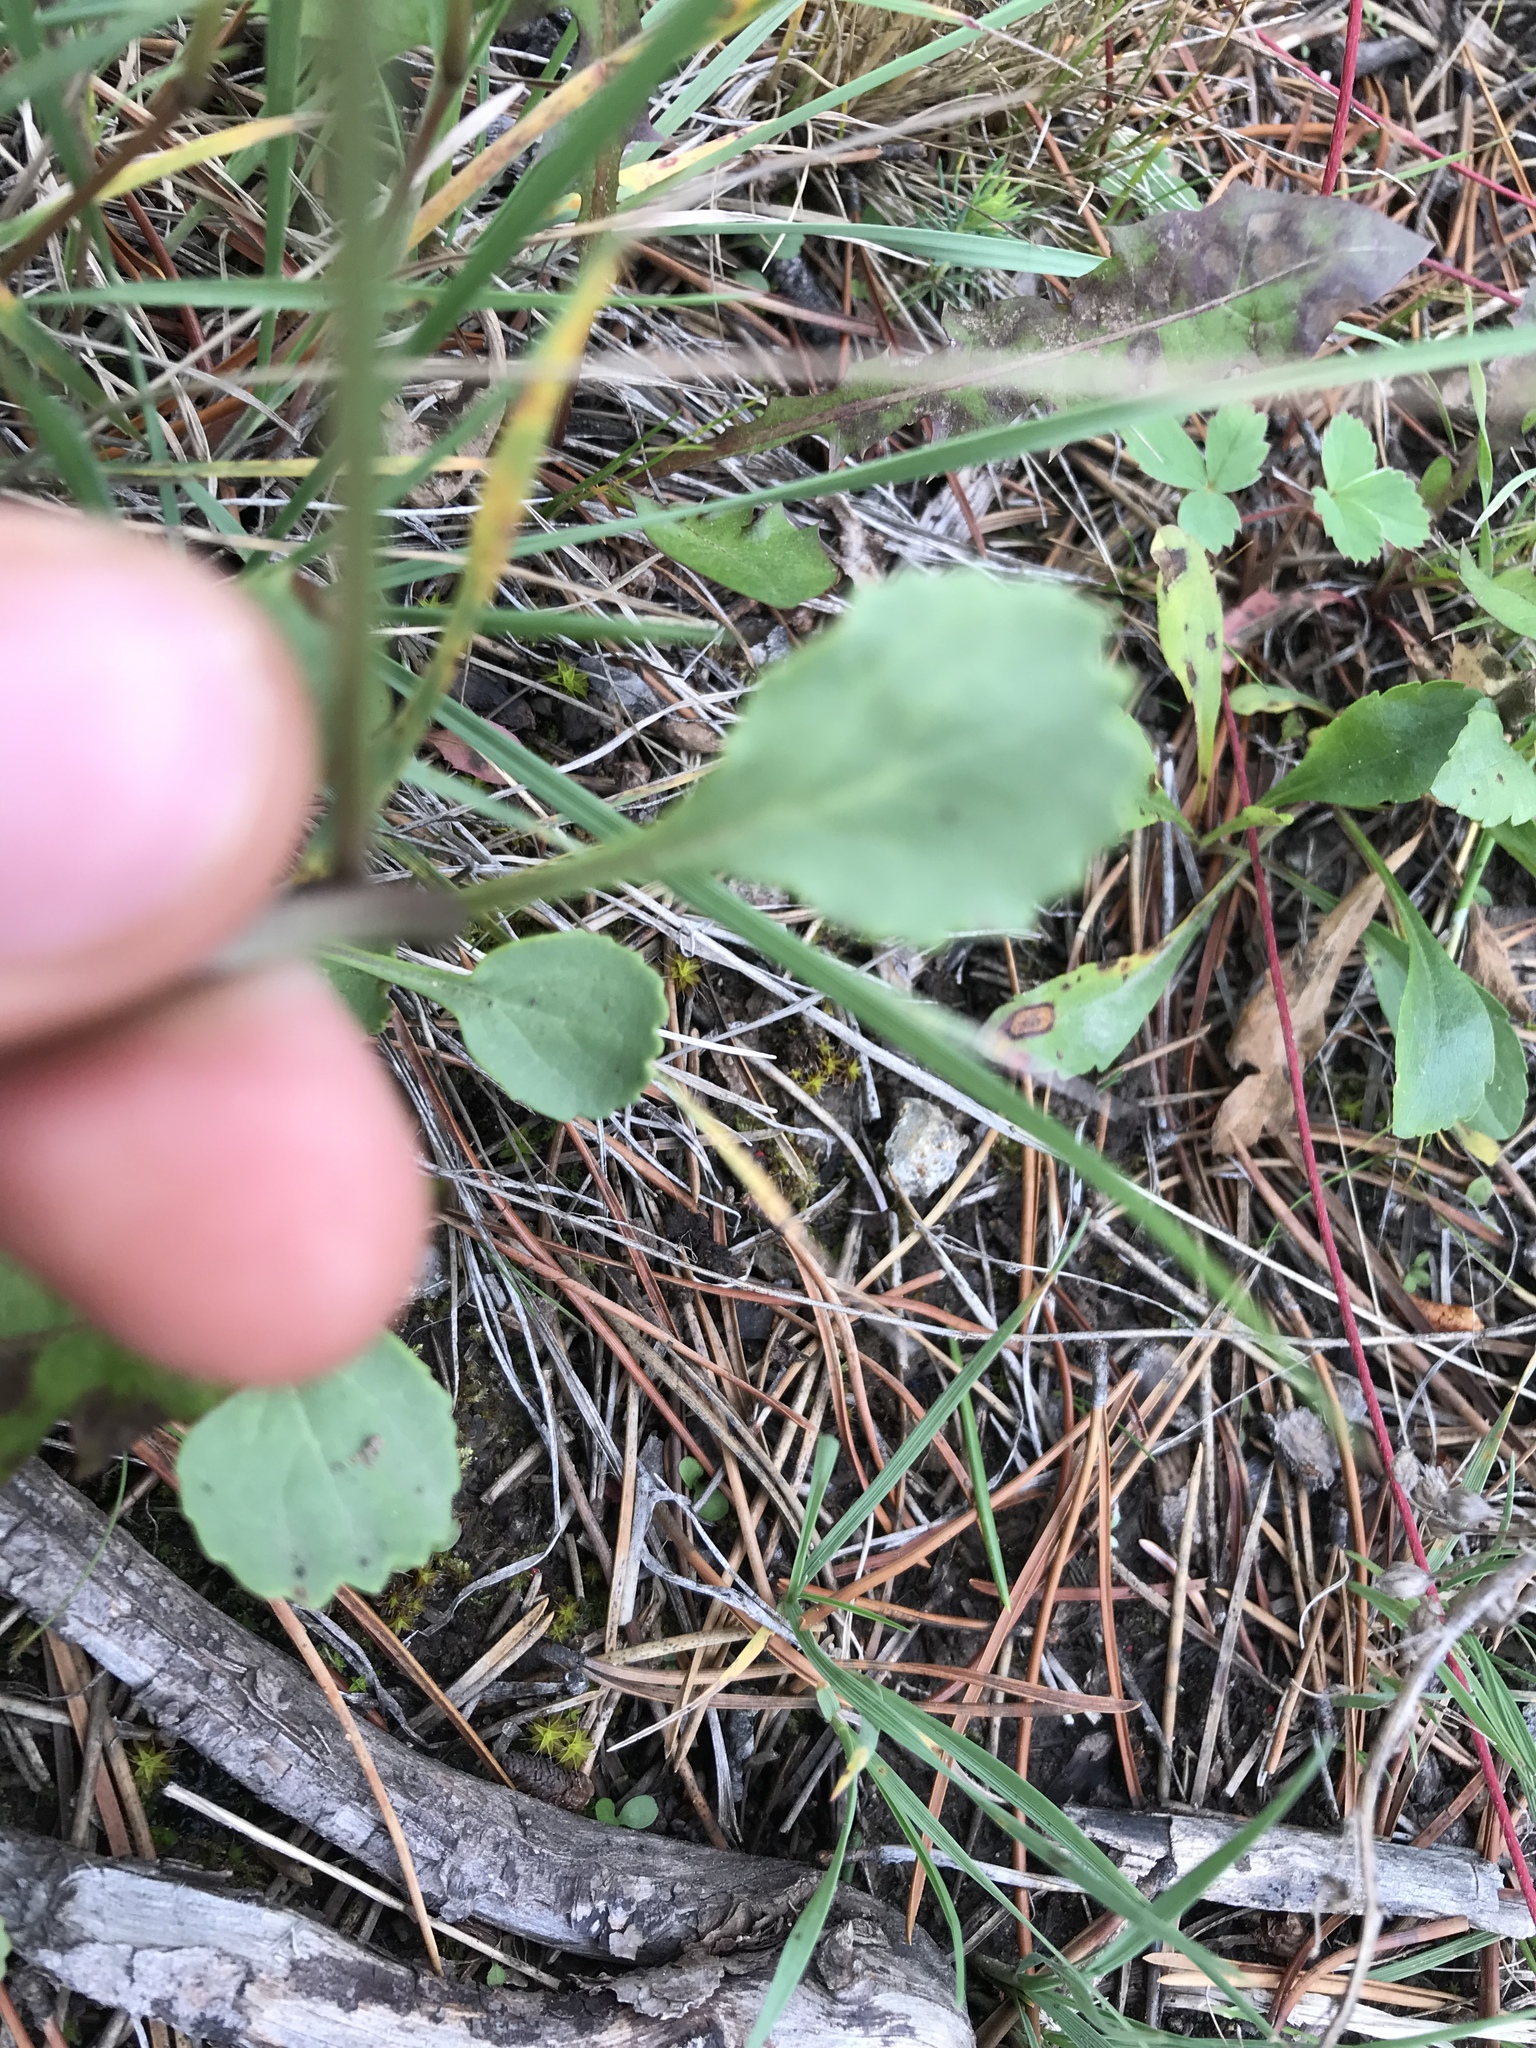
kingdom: Plantae
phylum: Tracheophyta
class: Magnoliopsida
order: Asterales
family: Asteraceae
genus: Packera
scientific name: Packera streptanthifolia
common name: Rocky mountain butterweed
